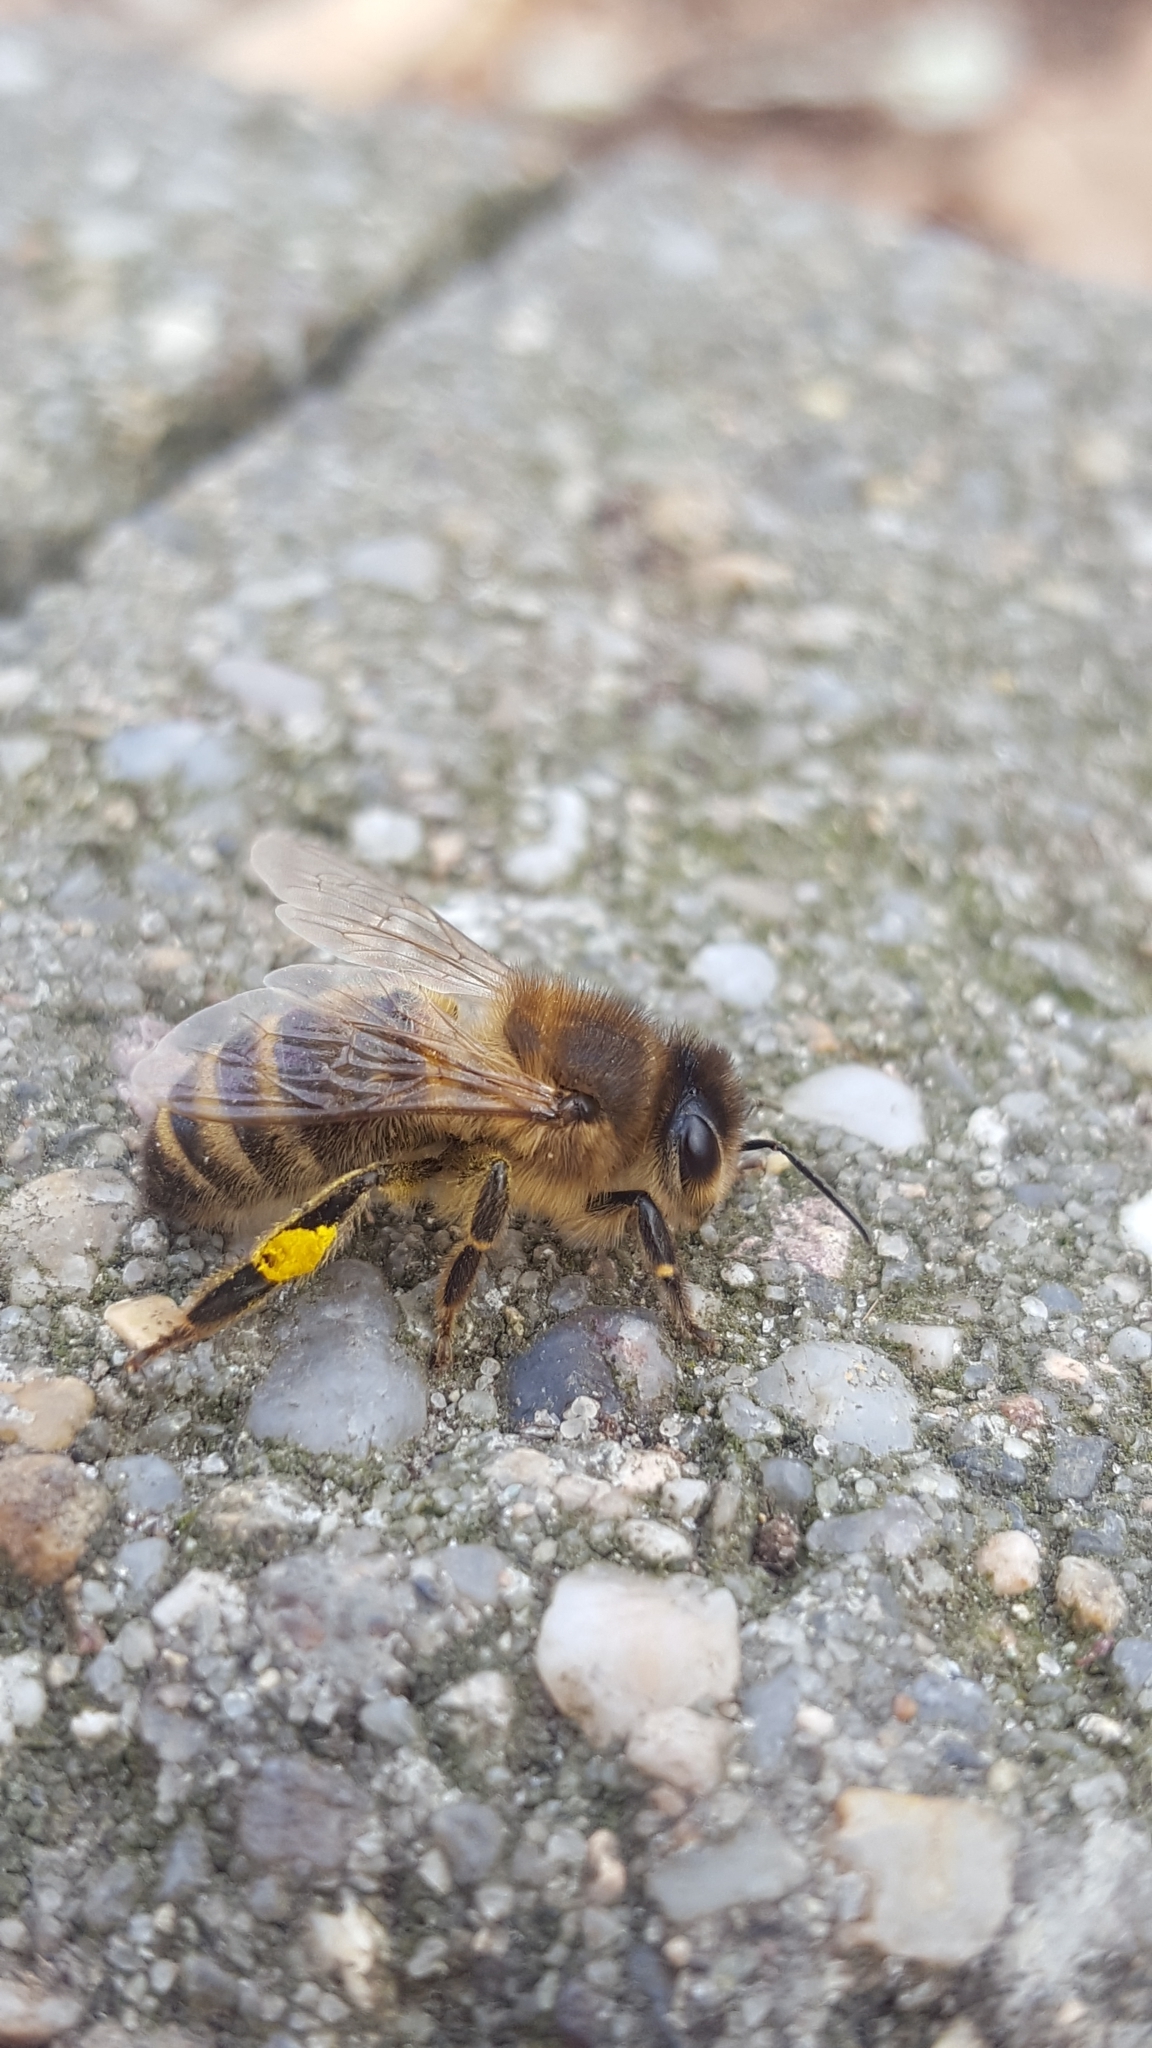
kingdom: Animalia
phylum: Arthropoda
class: Insecta
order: Hymenoptera
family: Apidae
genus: Apis
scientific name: Apis mellifera
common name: Honey bee
